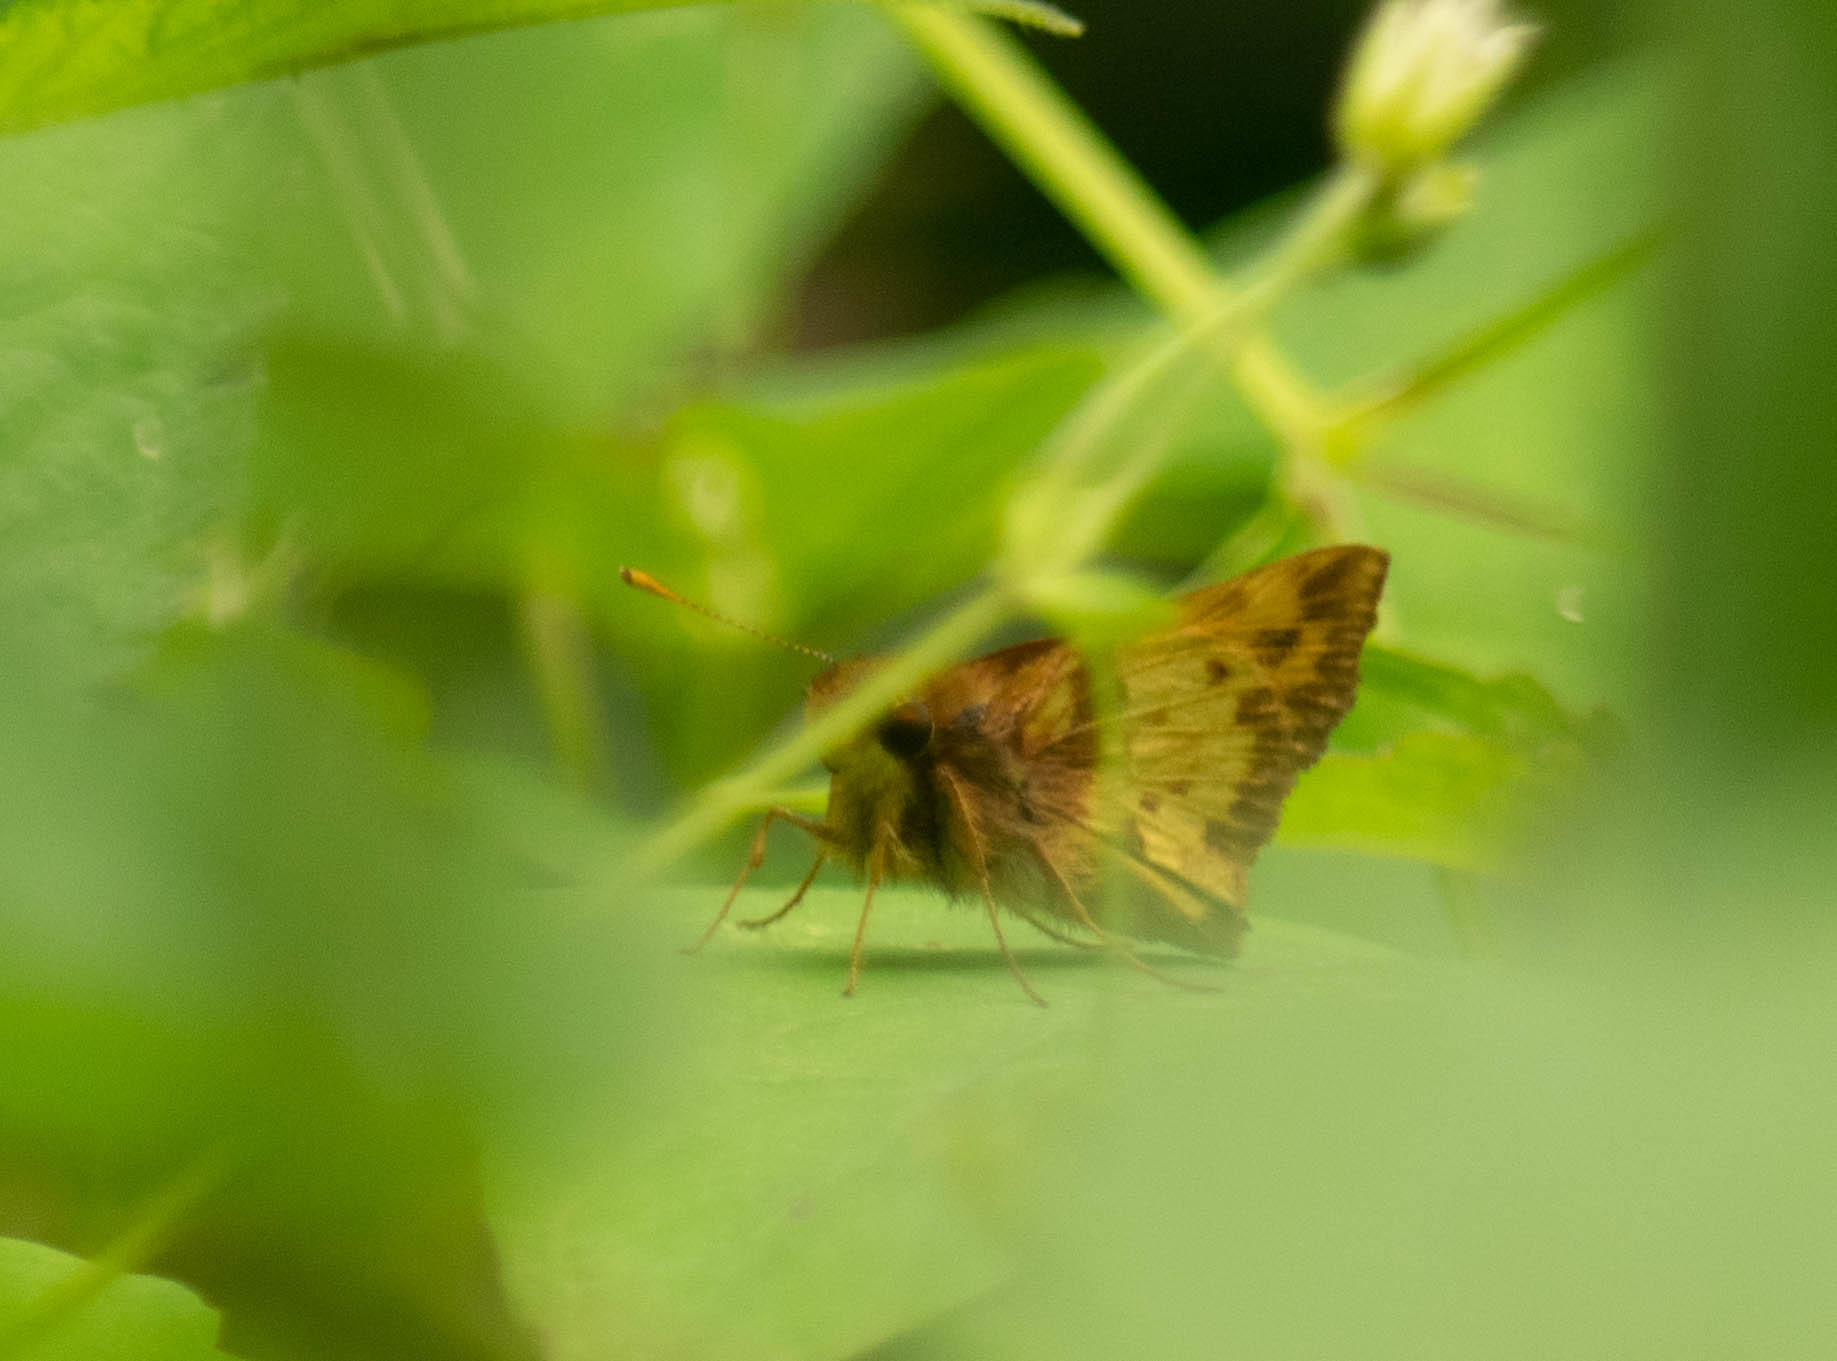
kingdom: Animalia
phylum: Arthropoda
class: Insecta
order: Lepidoptera
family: Hesperiidae
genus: Lon
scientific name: Lon zabulon
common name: Zabulon skipper
